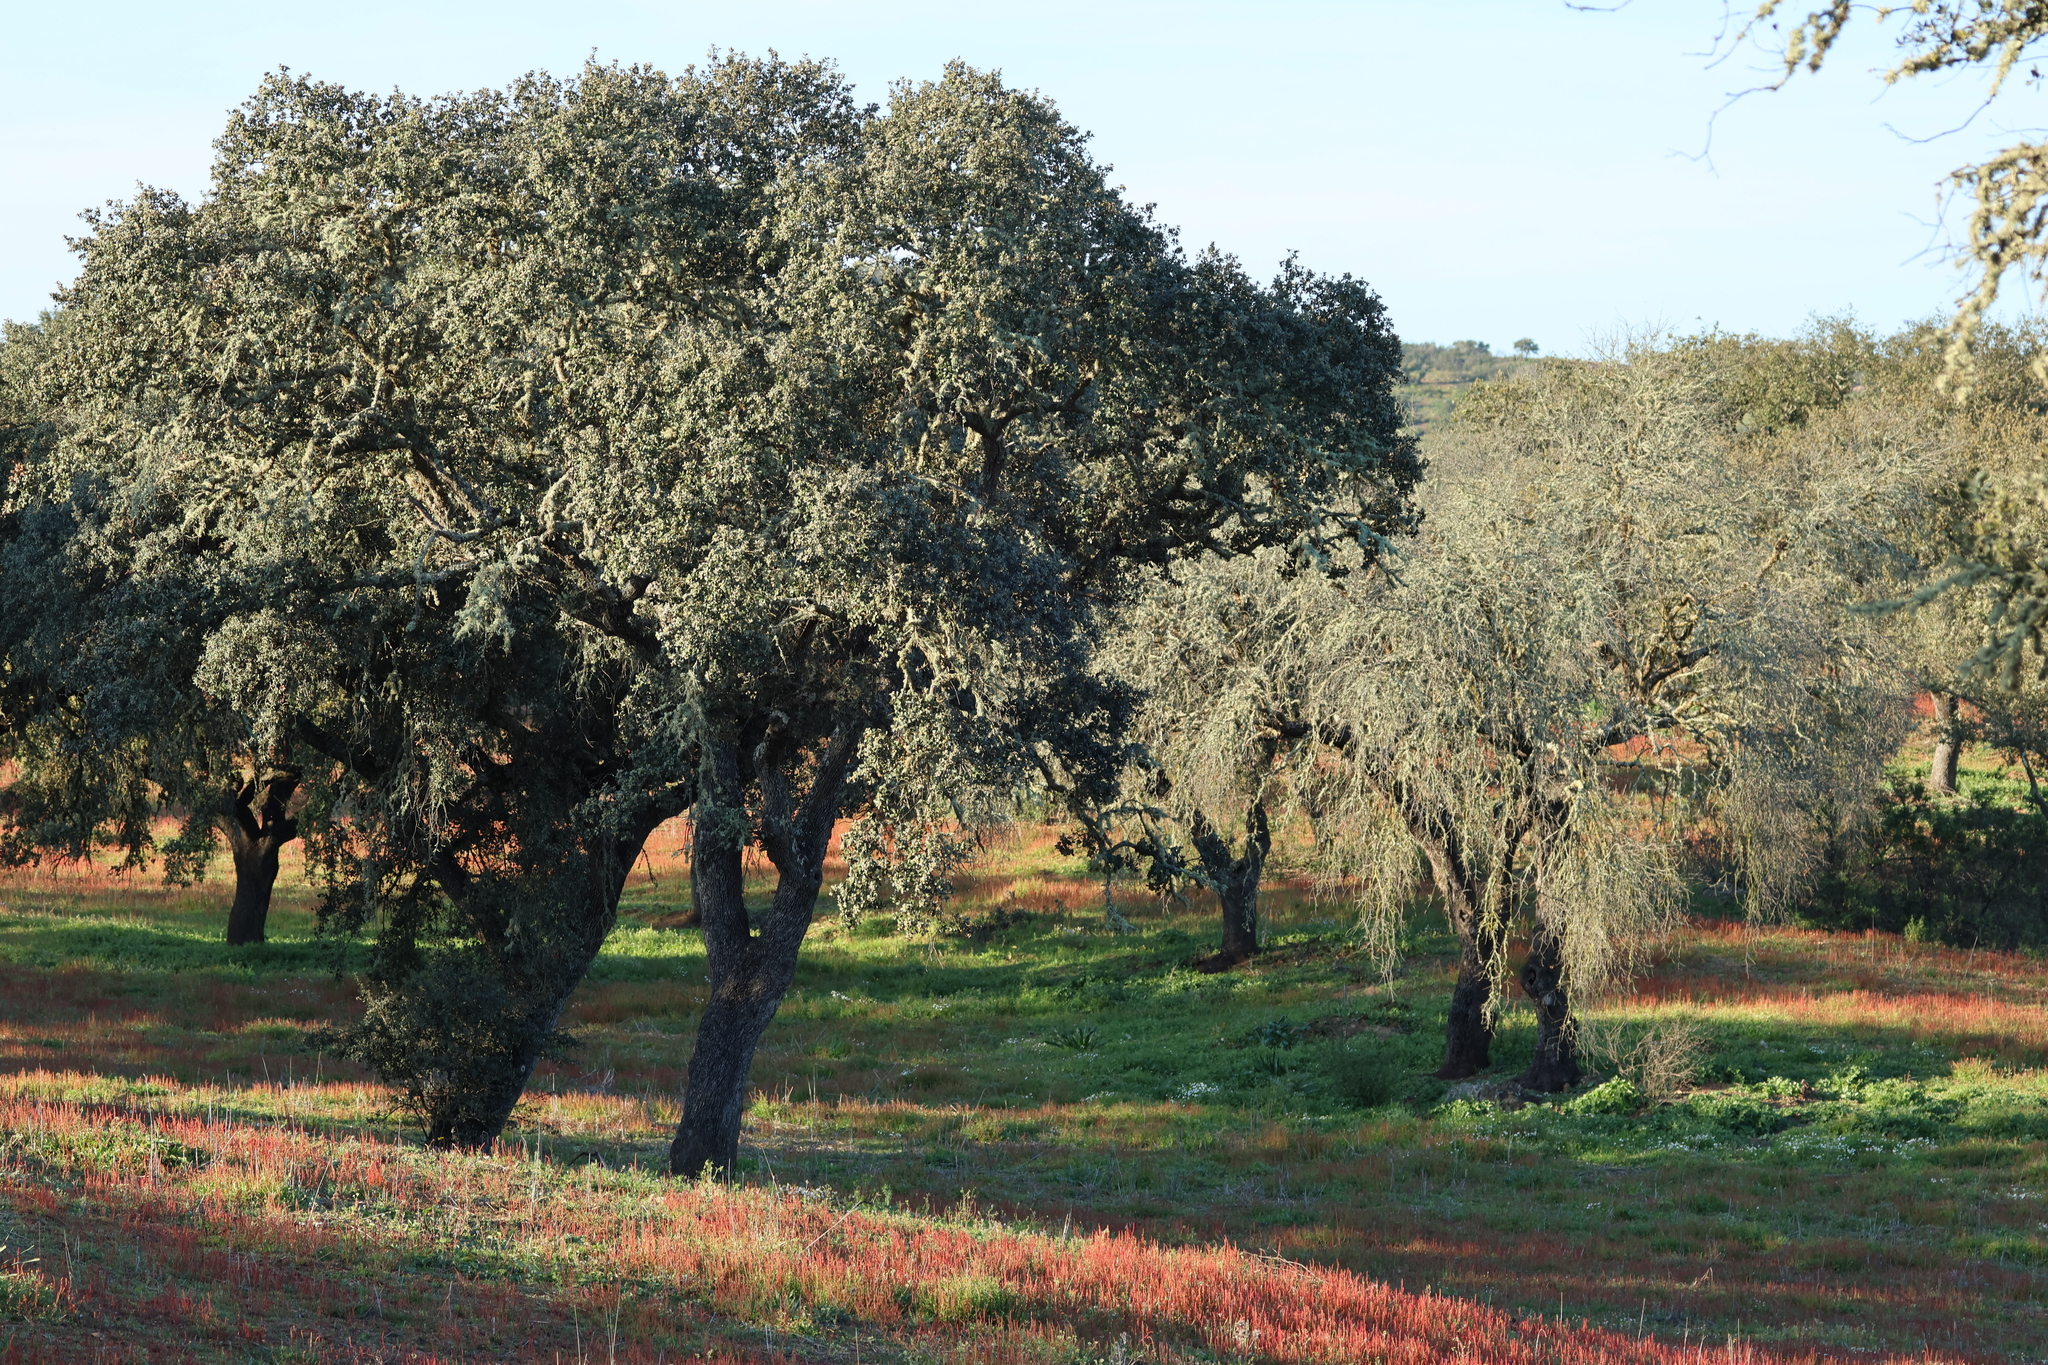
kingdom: Plantae
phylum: Tracheophyta
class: Magnoliopsida
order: Fagales
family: Fagaceae
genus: Quercus
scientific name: Quercus rotundifolia
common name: Holm oak
